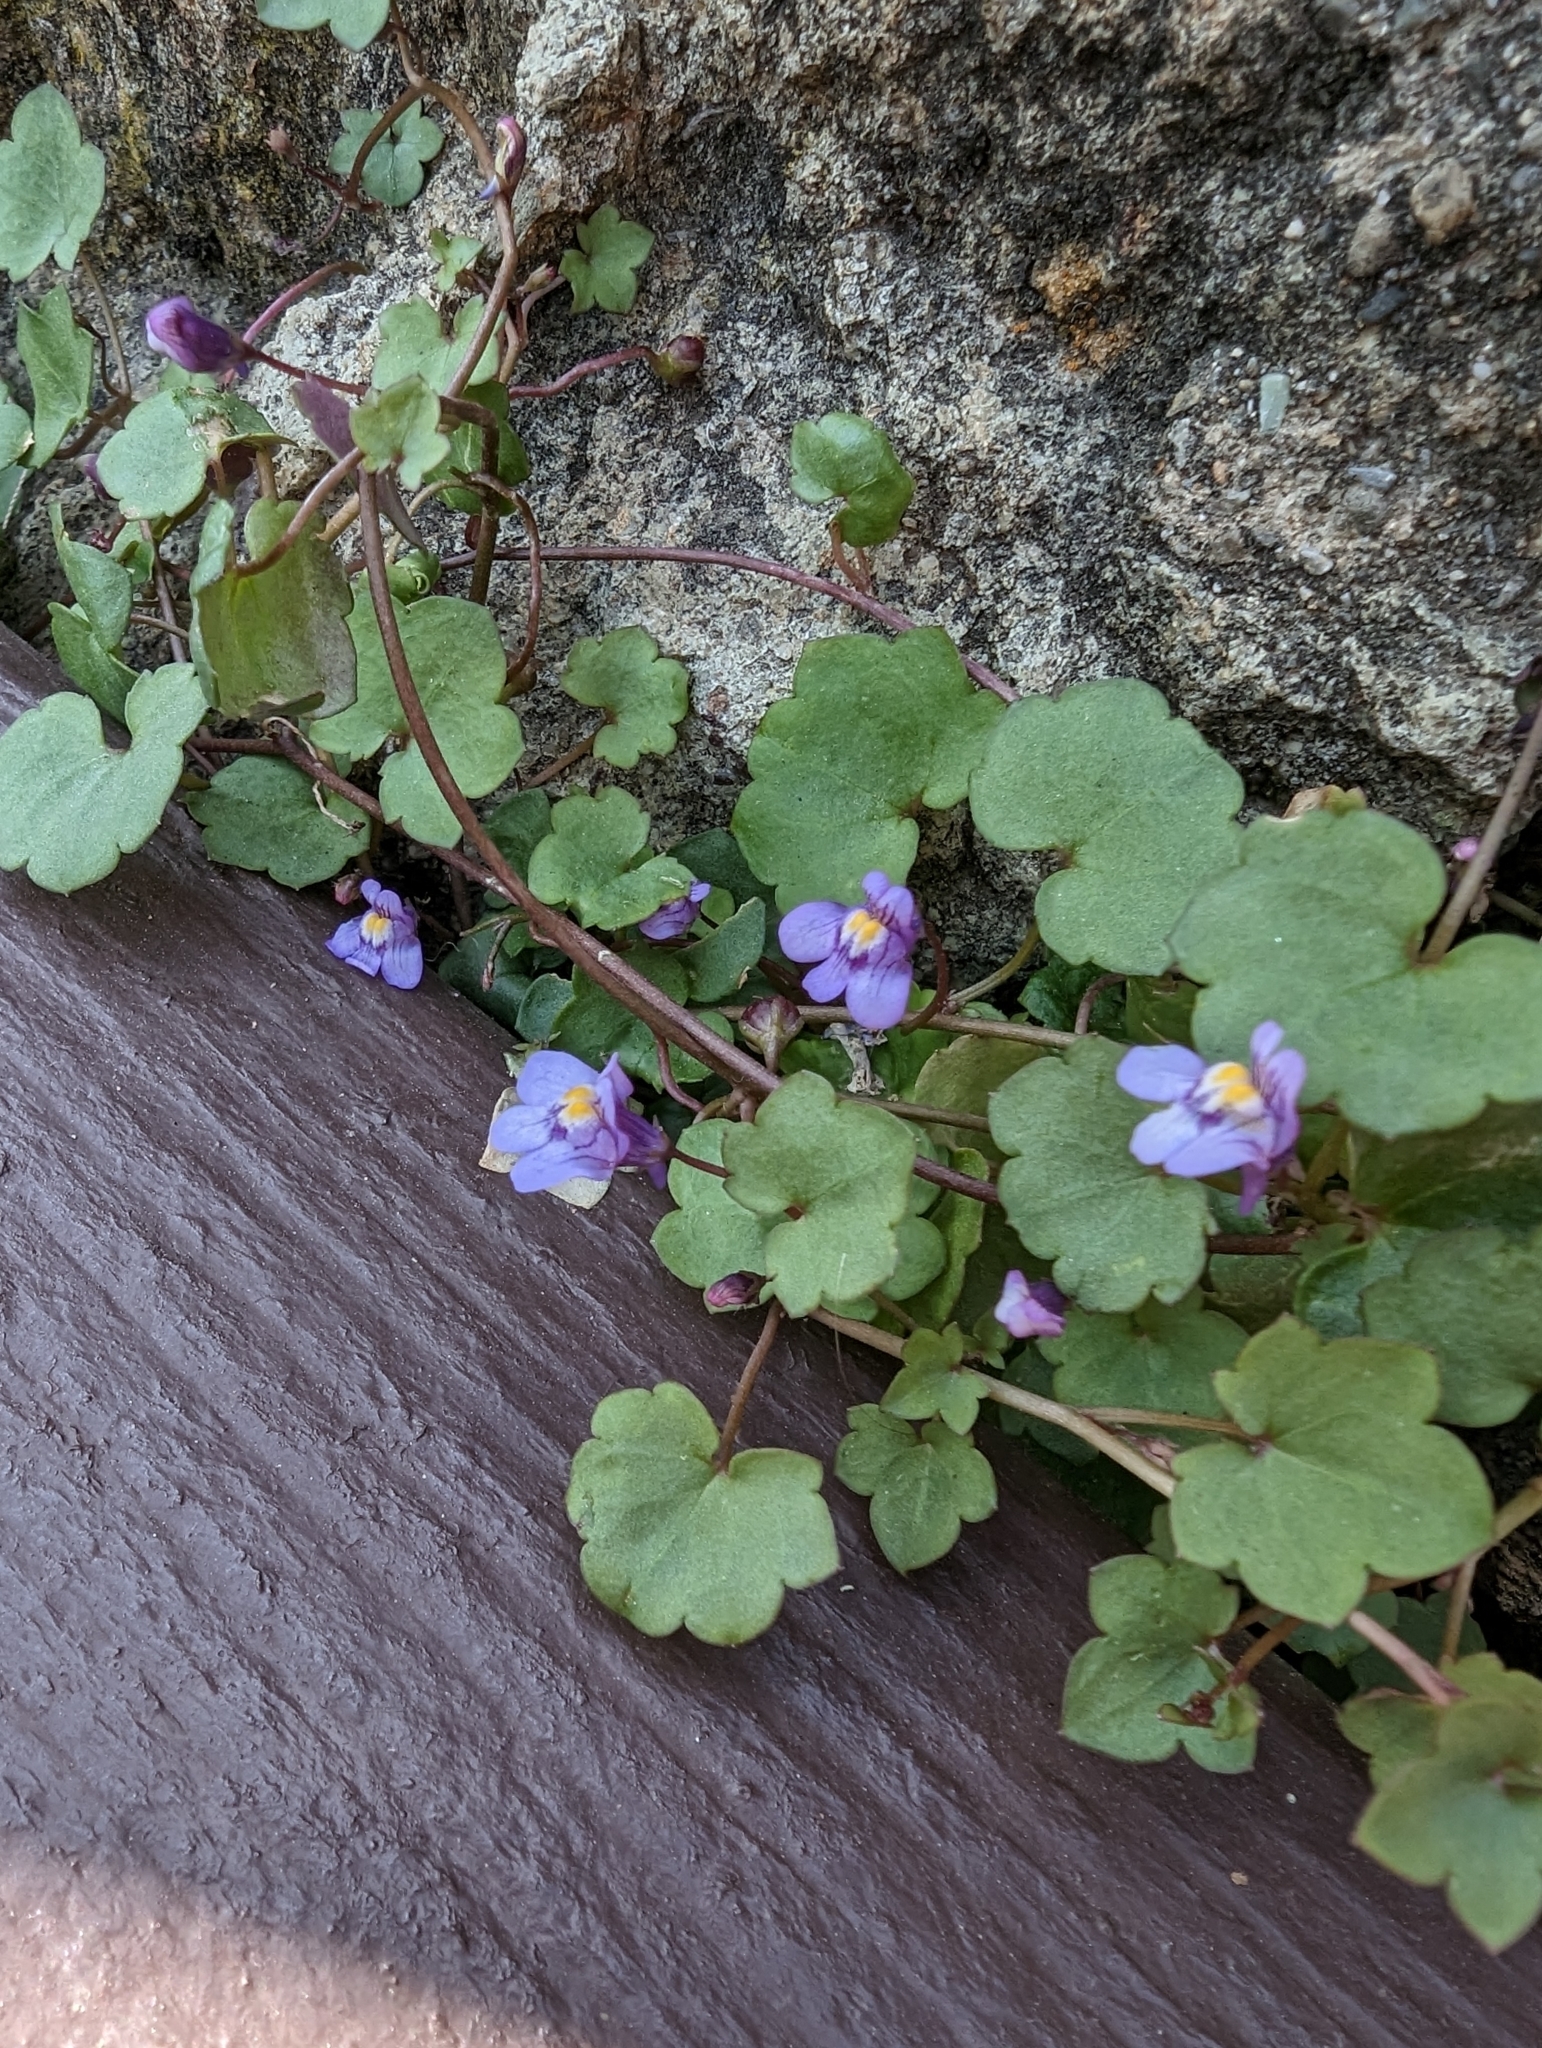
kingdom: Plantae
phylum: Tracheophyta
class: Magnoliopsida
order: Lamiales
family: Plantaginaceae
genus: Cymbalaria
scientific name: Cymbalaria muralis
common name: Ivy-leaved toadflax
